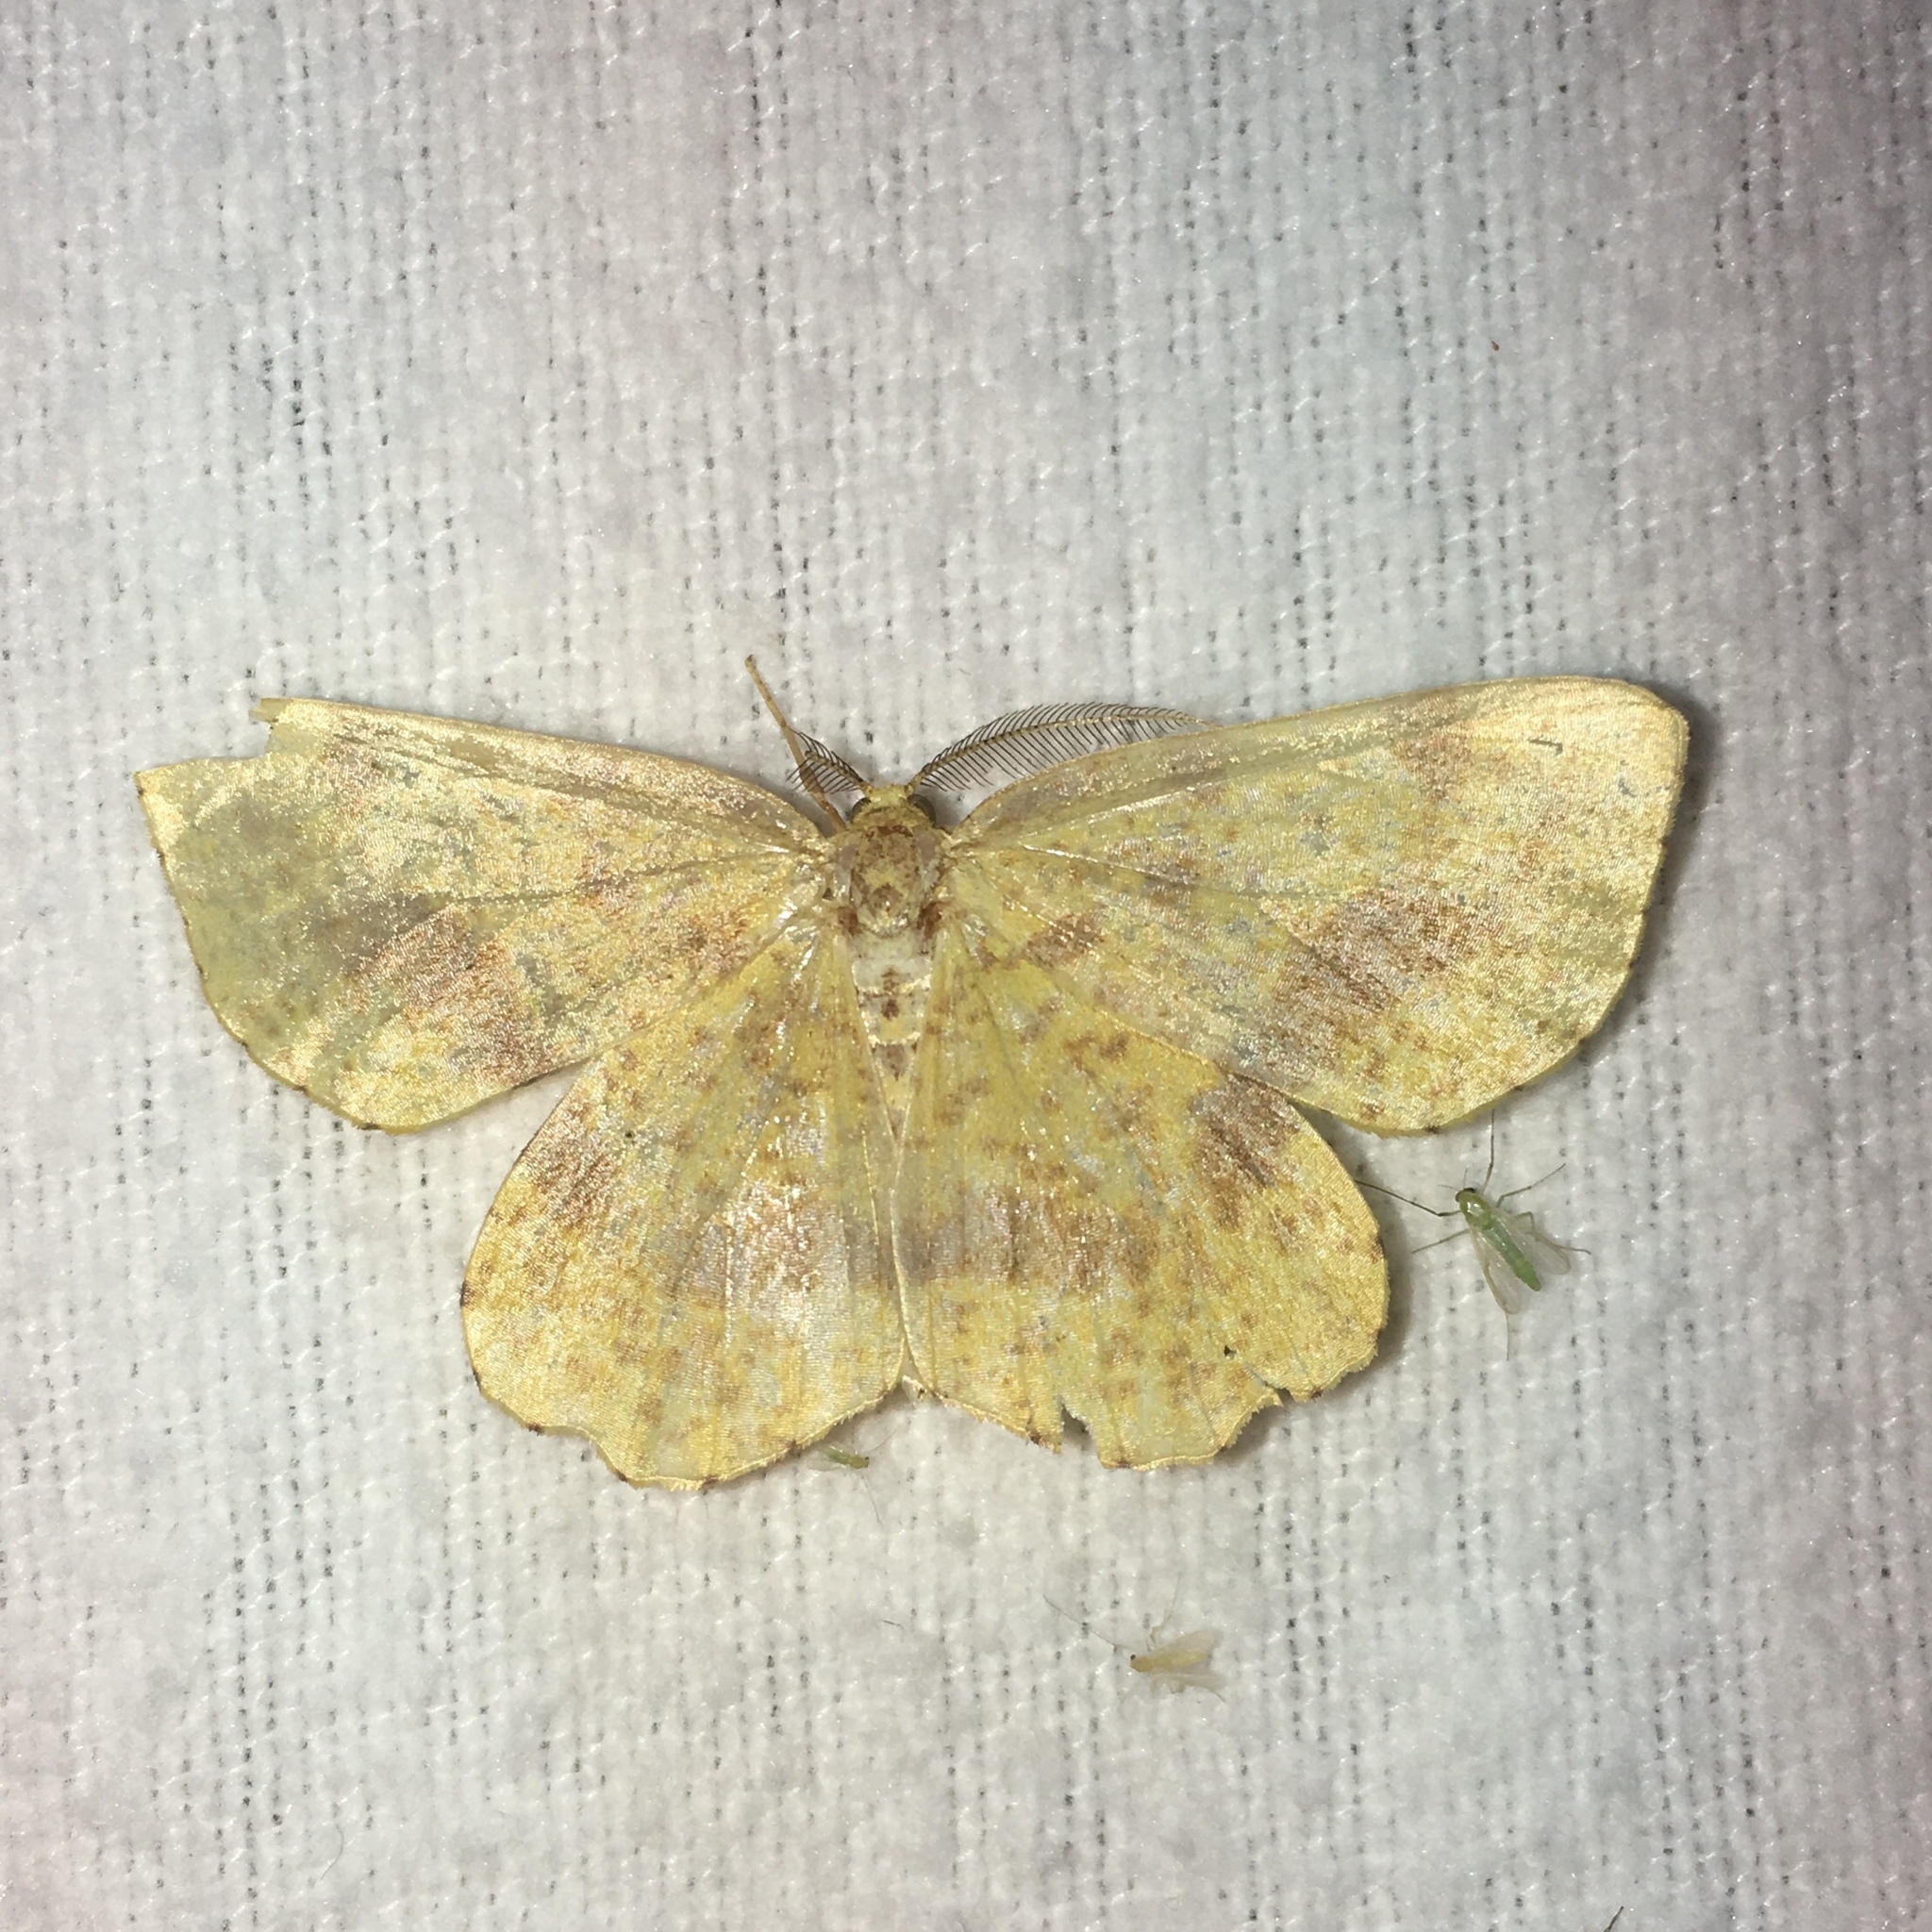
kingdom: Animalia
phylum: Arthropoda
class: Insecta
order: Lepidoptera
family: Geometridae
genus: Xanthotype
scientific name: Xanthotype
